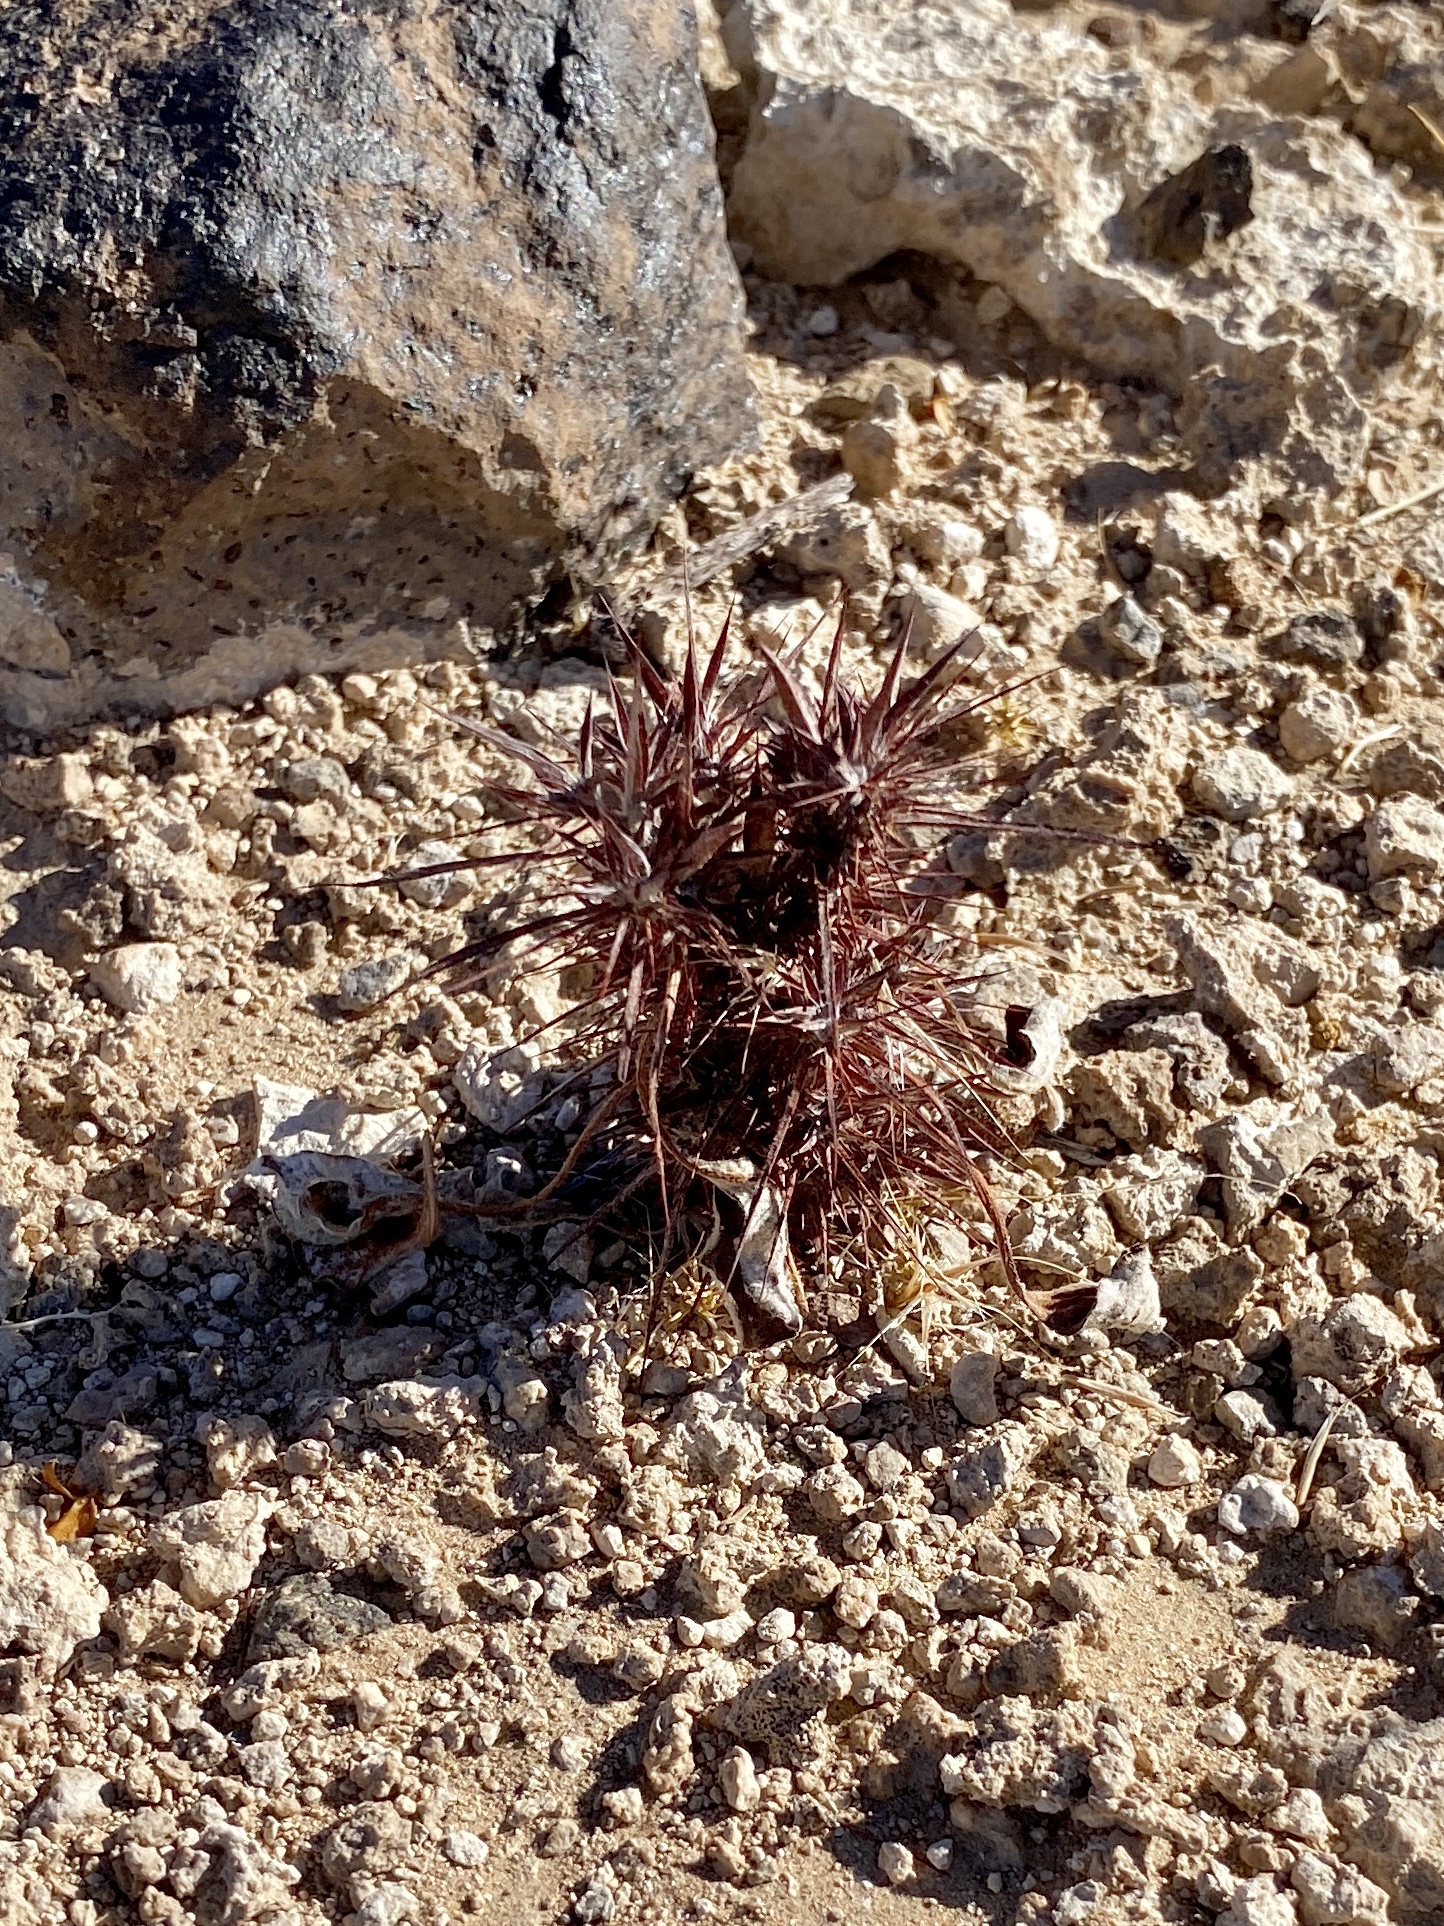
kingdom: Plantae
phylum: Tracheophyta
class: Magnoliopsida
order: Caryophyllales
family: Polygonaceae
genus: Chorizanthe
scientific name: Chorizanthe rigida
